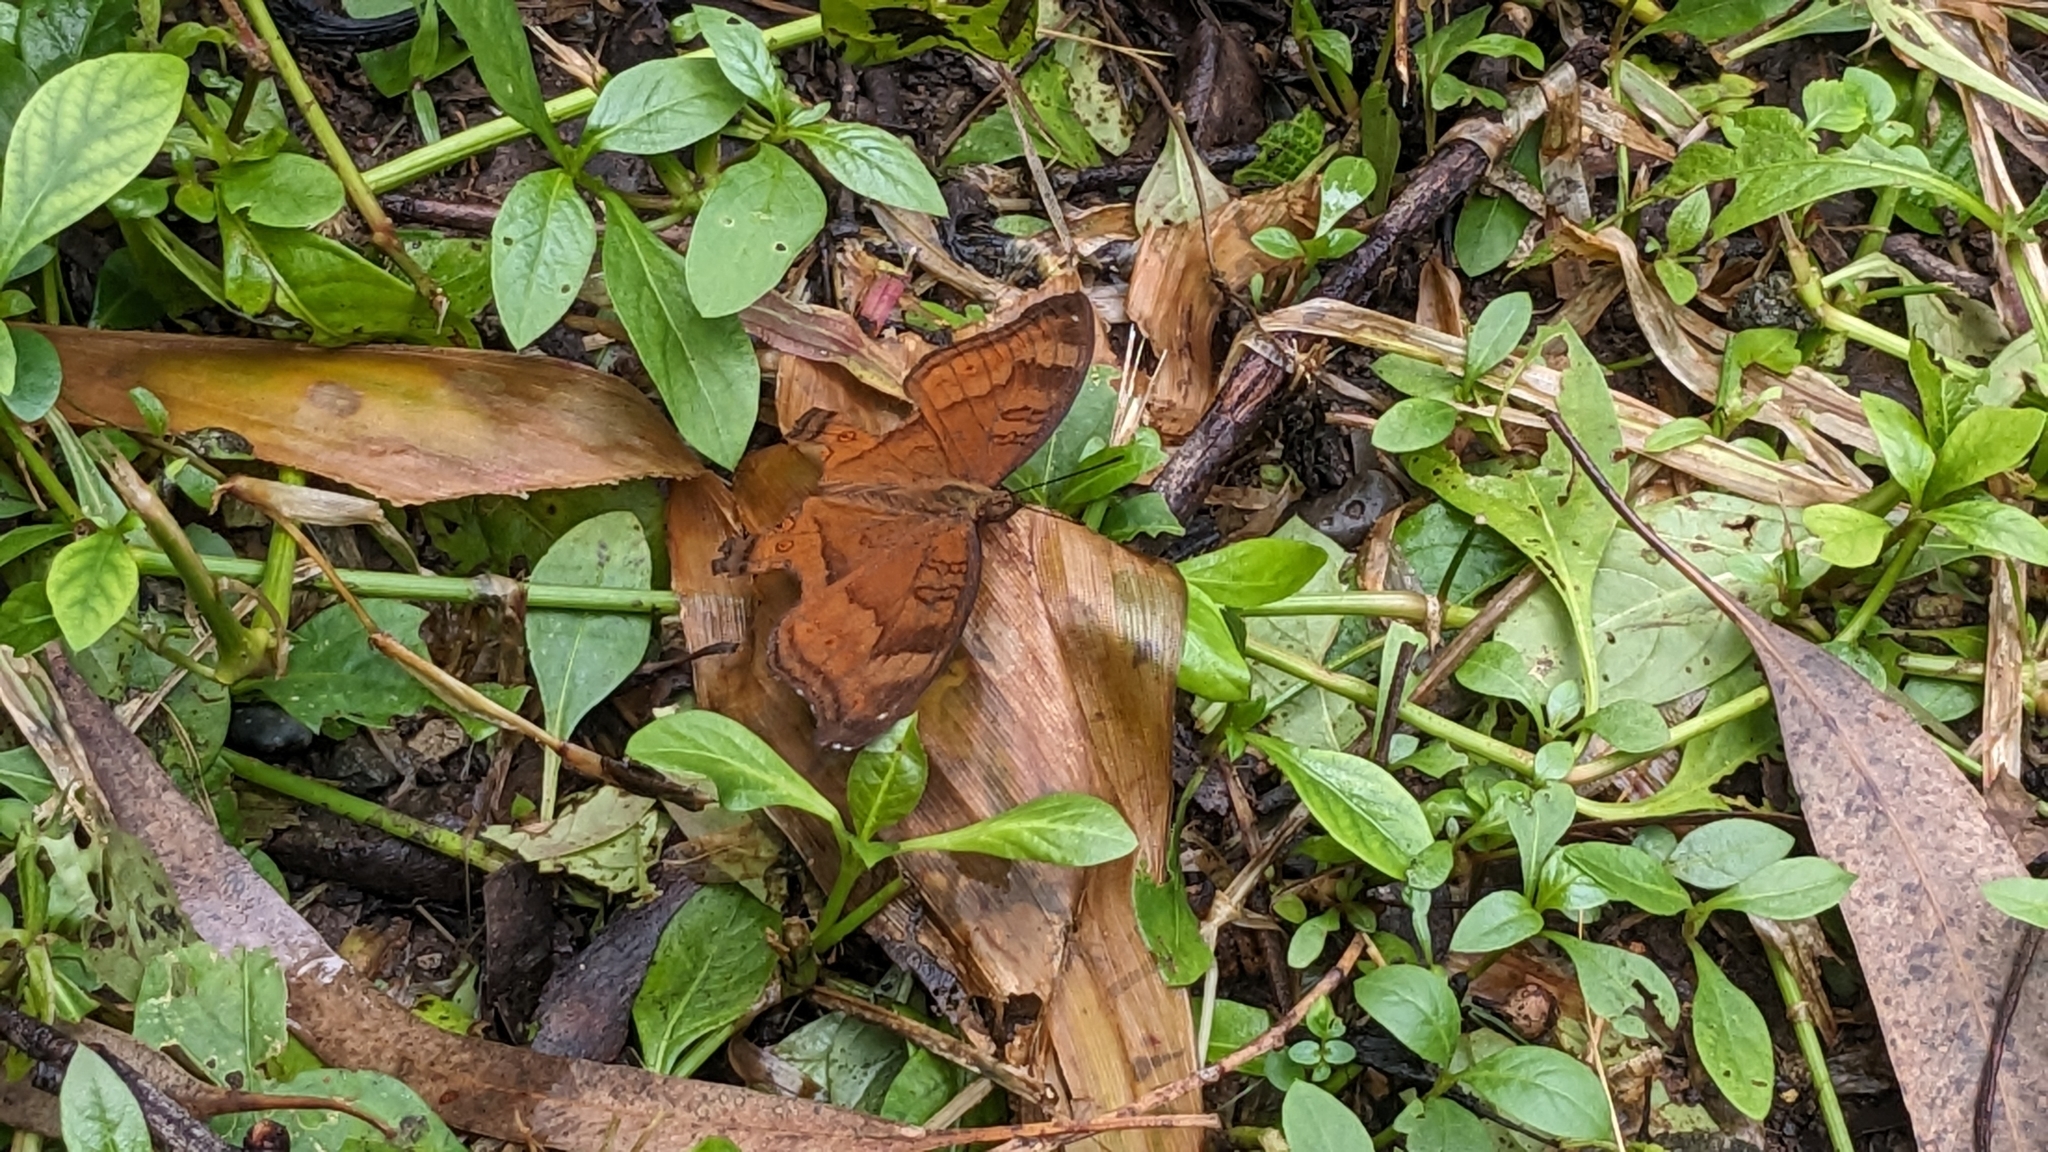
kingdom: Animalia
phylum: Arthropoda
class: Insecta
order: Lepidoptera
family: Nymphalidae
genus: Junonia
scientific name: Junonia hedonia
